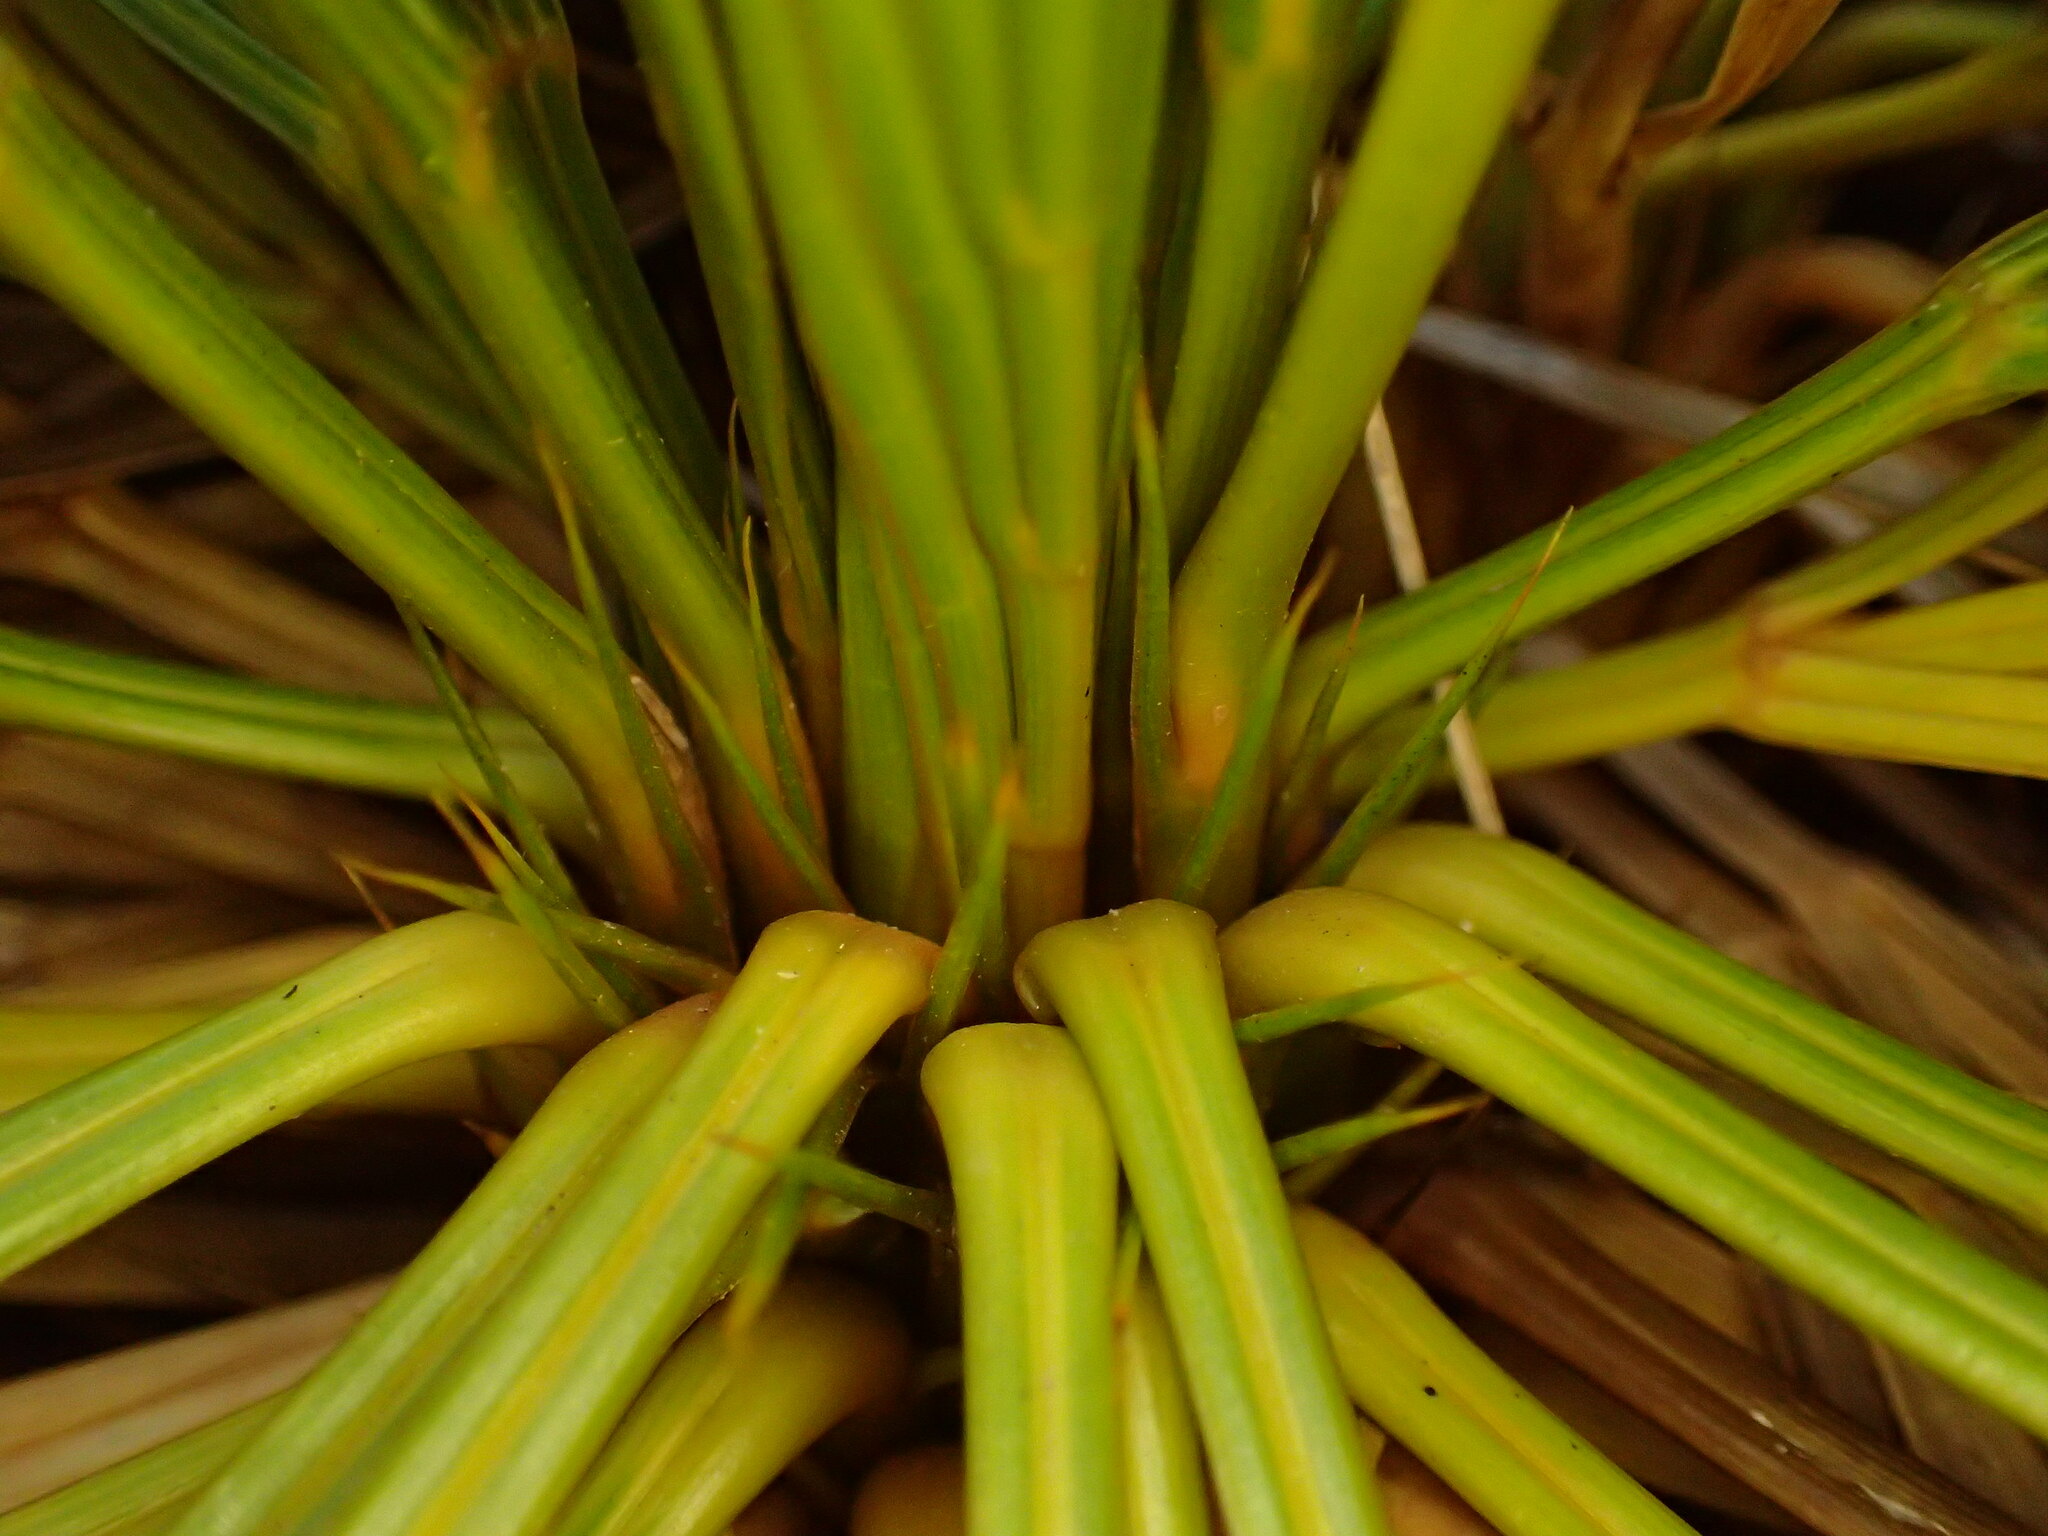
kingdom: Plantae
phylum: Tracheophyta
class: Magnoliopsida
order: Apiales
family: Apiaceae
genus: Aciphylla
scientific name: Aciphylla lecomtei
